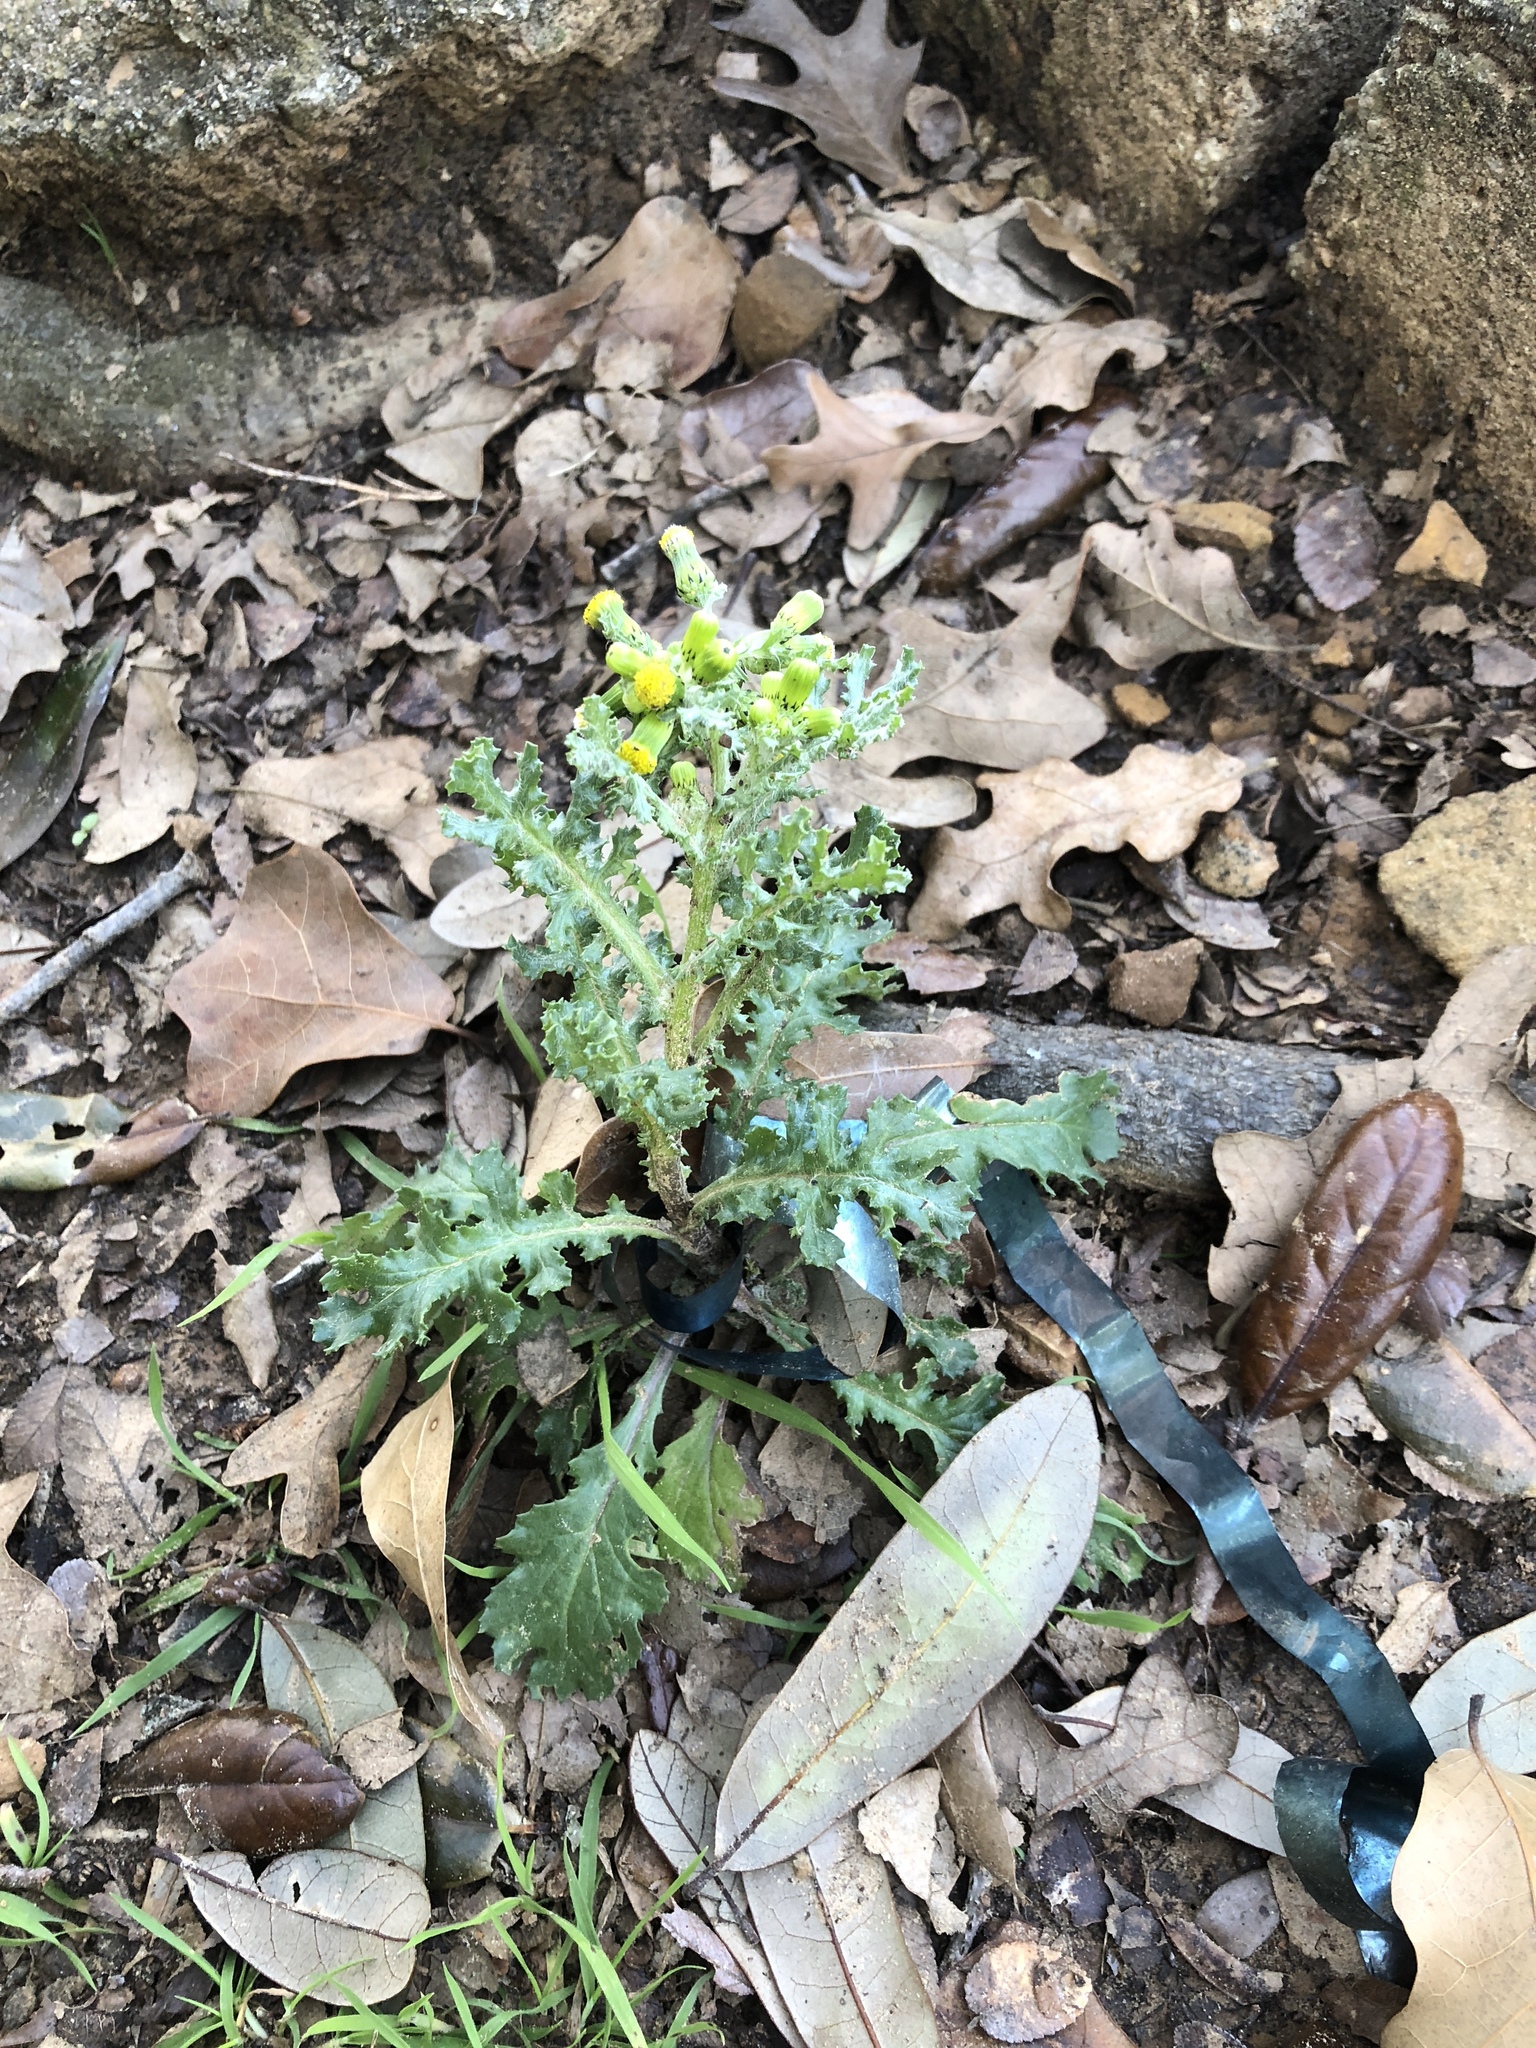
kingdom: Plantae
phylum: Tracheophyta
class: Magnoliopsida
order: Asterales
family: Asteraceae
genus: Senecio
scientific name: Senecio vulgaris
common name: Old-man-in-the-spring
